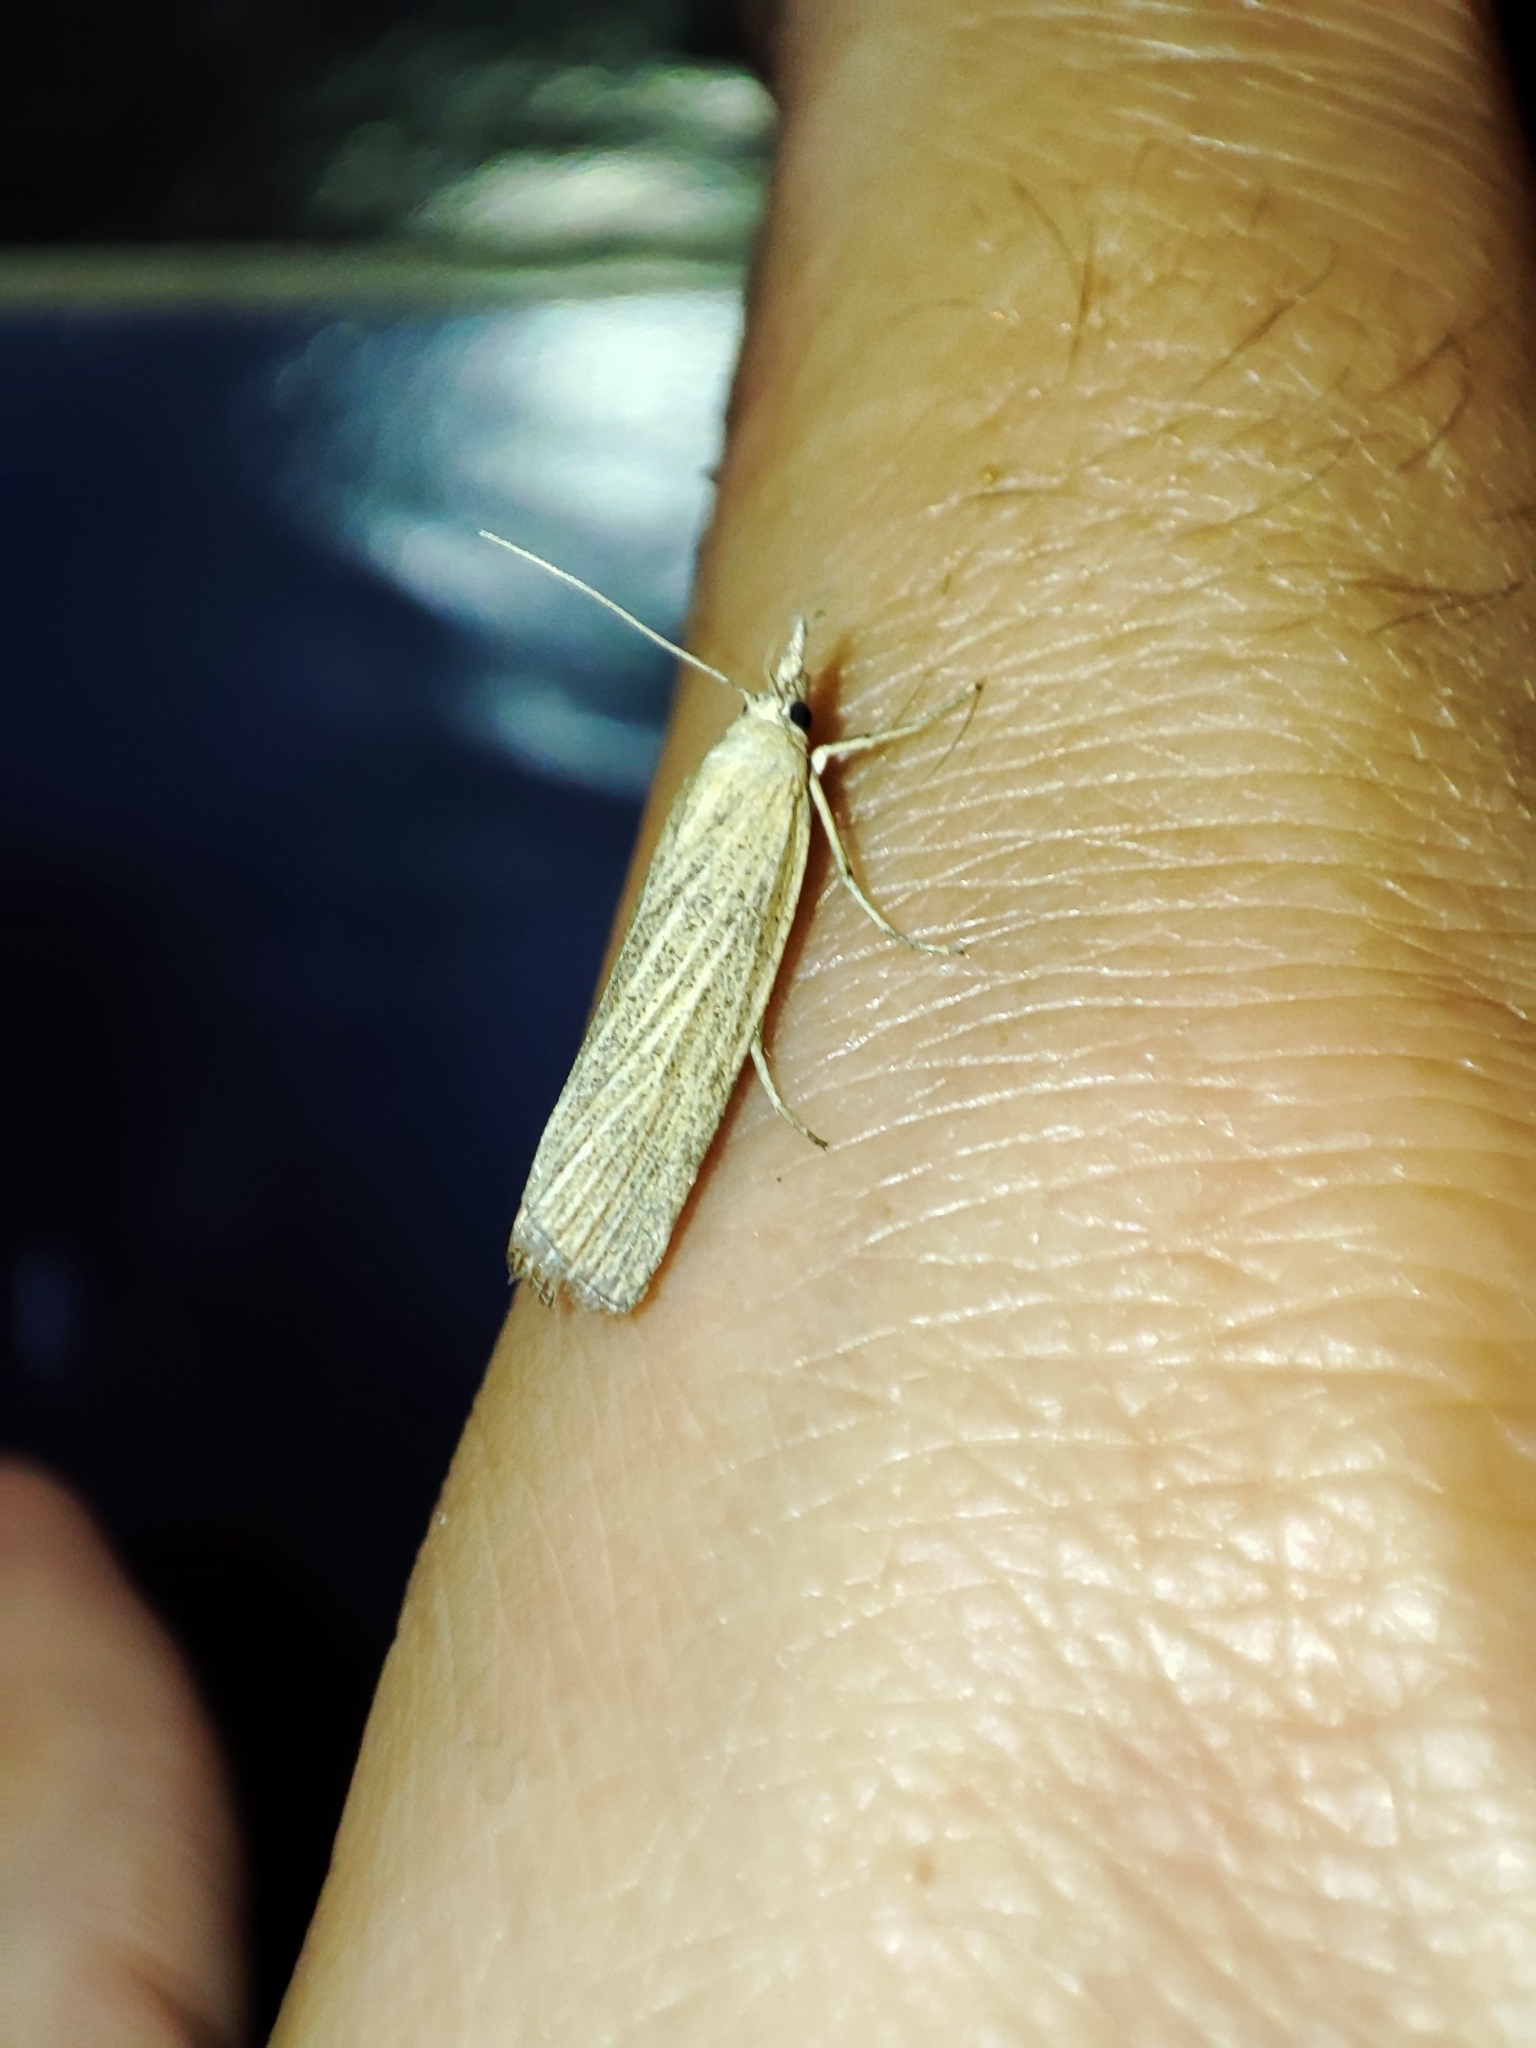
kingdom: Animalia
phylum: Arthropoda
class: Insecta
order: Lepidoptera
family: Crambidae
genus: Pediasia
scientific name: Pediasia luteella
